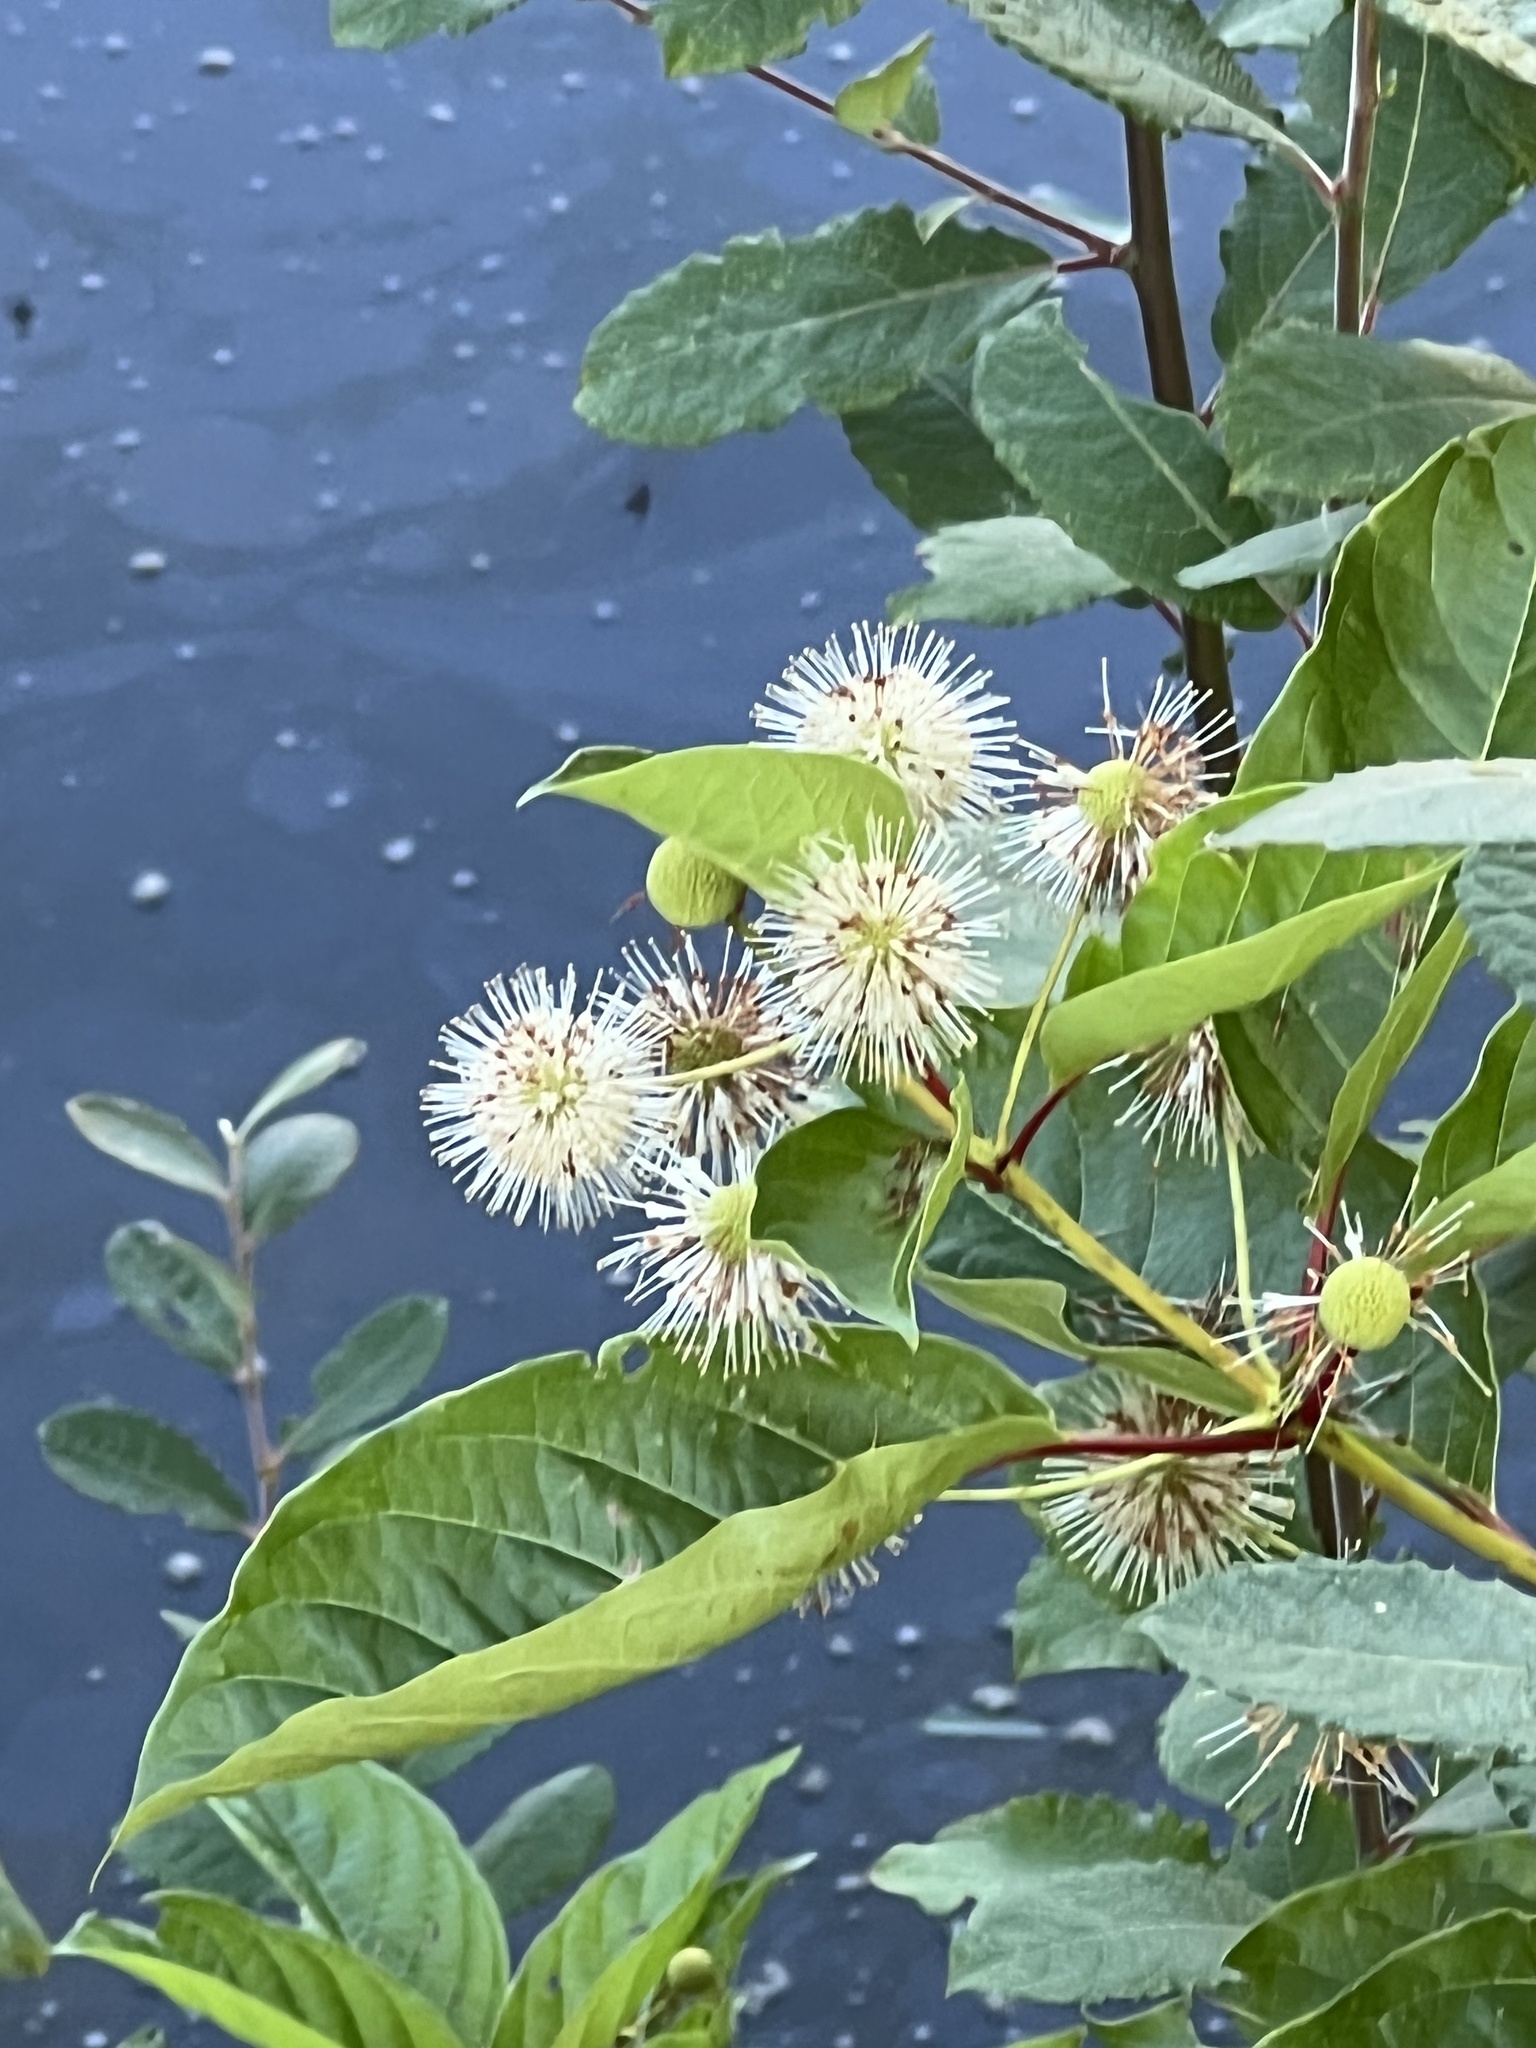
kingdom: Plantae
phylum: Tracheophyta
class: Magnoliopsida
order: Gentianales
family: Rubiaceae
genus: Cephalanthus
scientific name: Cephalanthus occidentalis
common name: Button-willow
